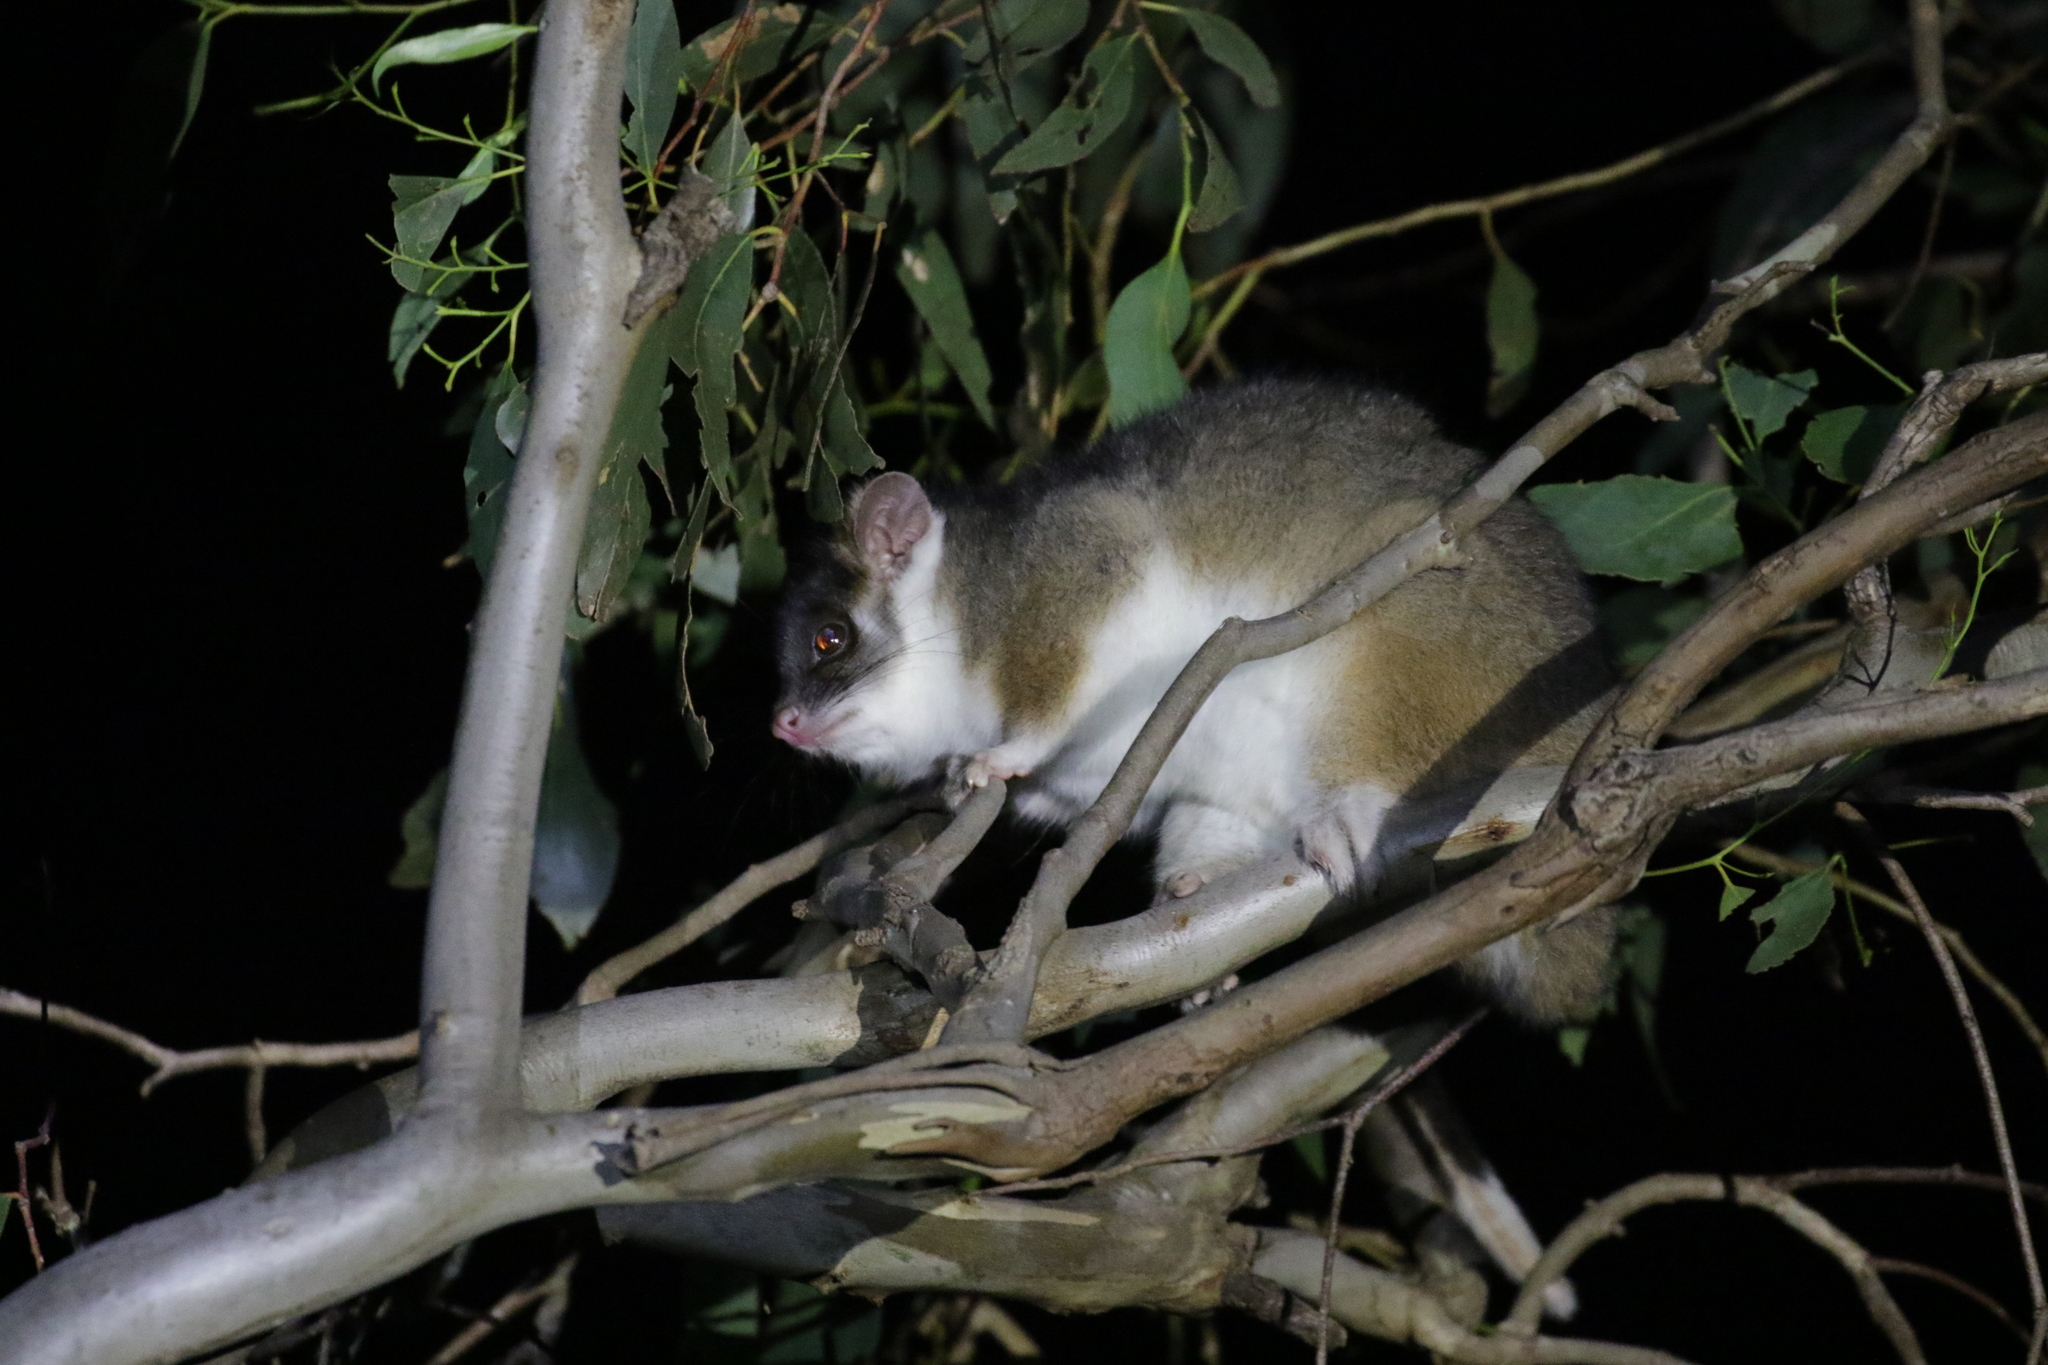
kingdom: Animalia
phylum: Chordata
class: Mammalia
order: Diprotodontia
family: Pseudocheiridae
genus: Pseudocheirus
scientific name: Pseudocheirus peregrinus
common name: Common ringtail possum
